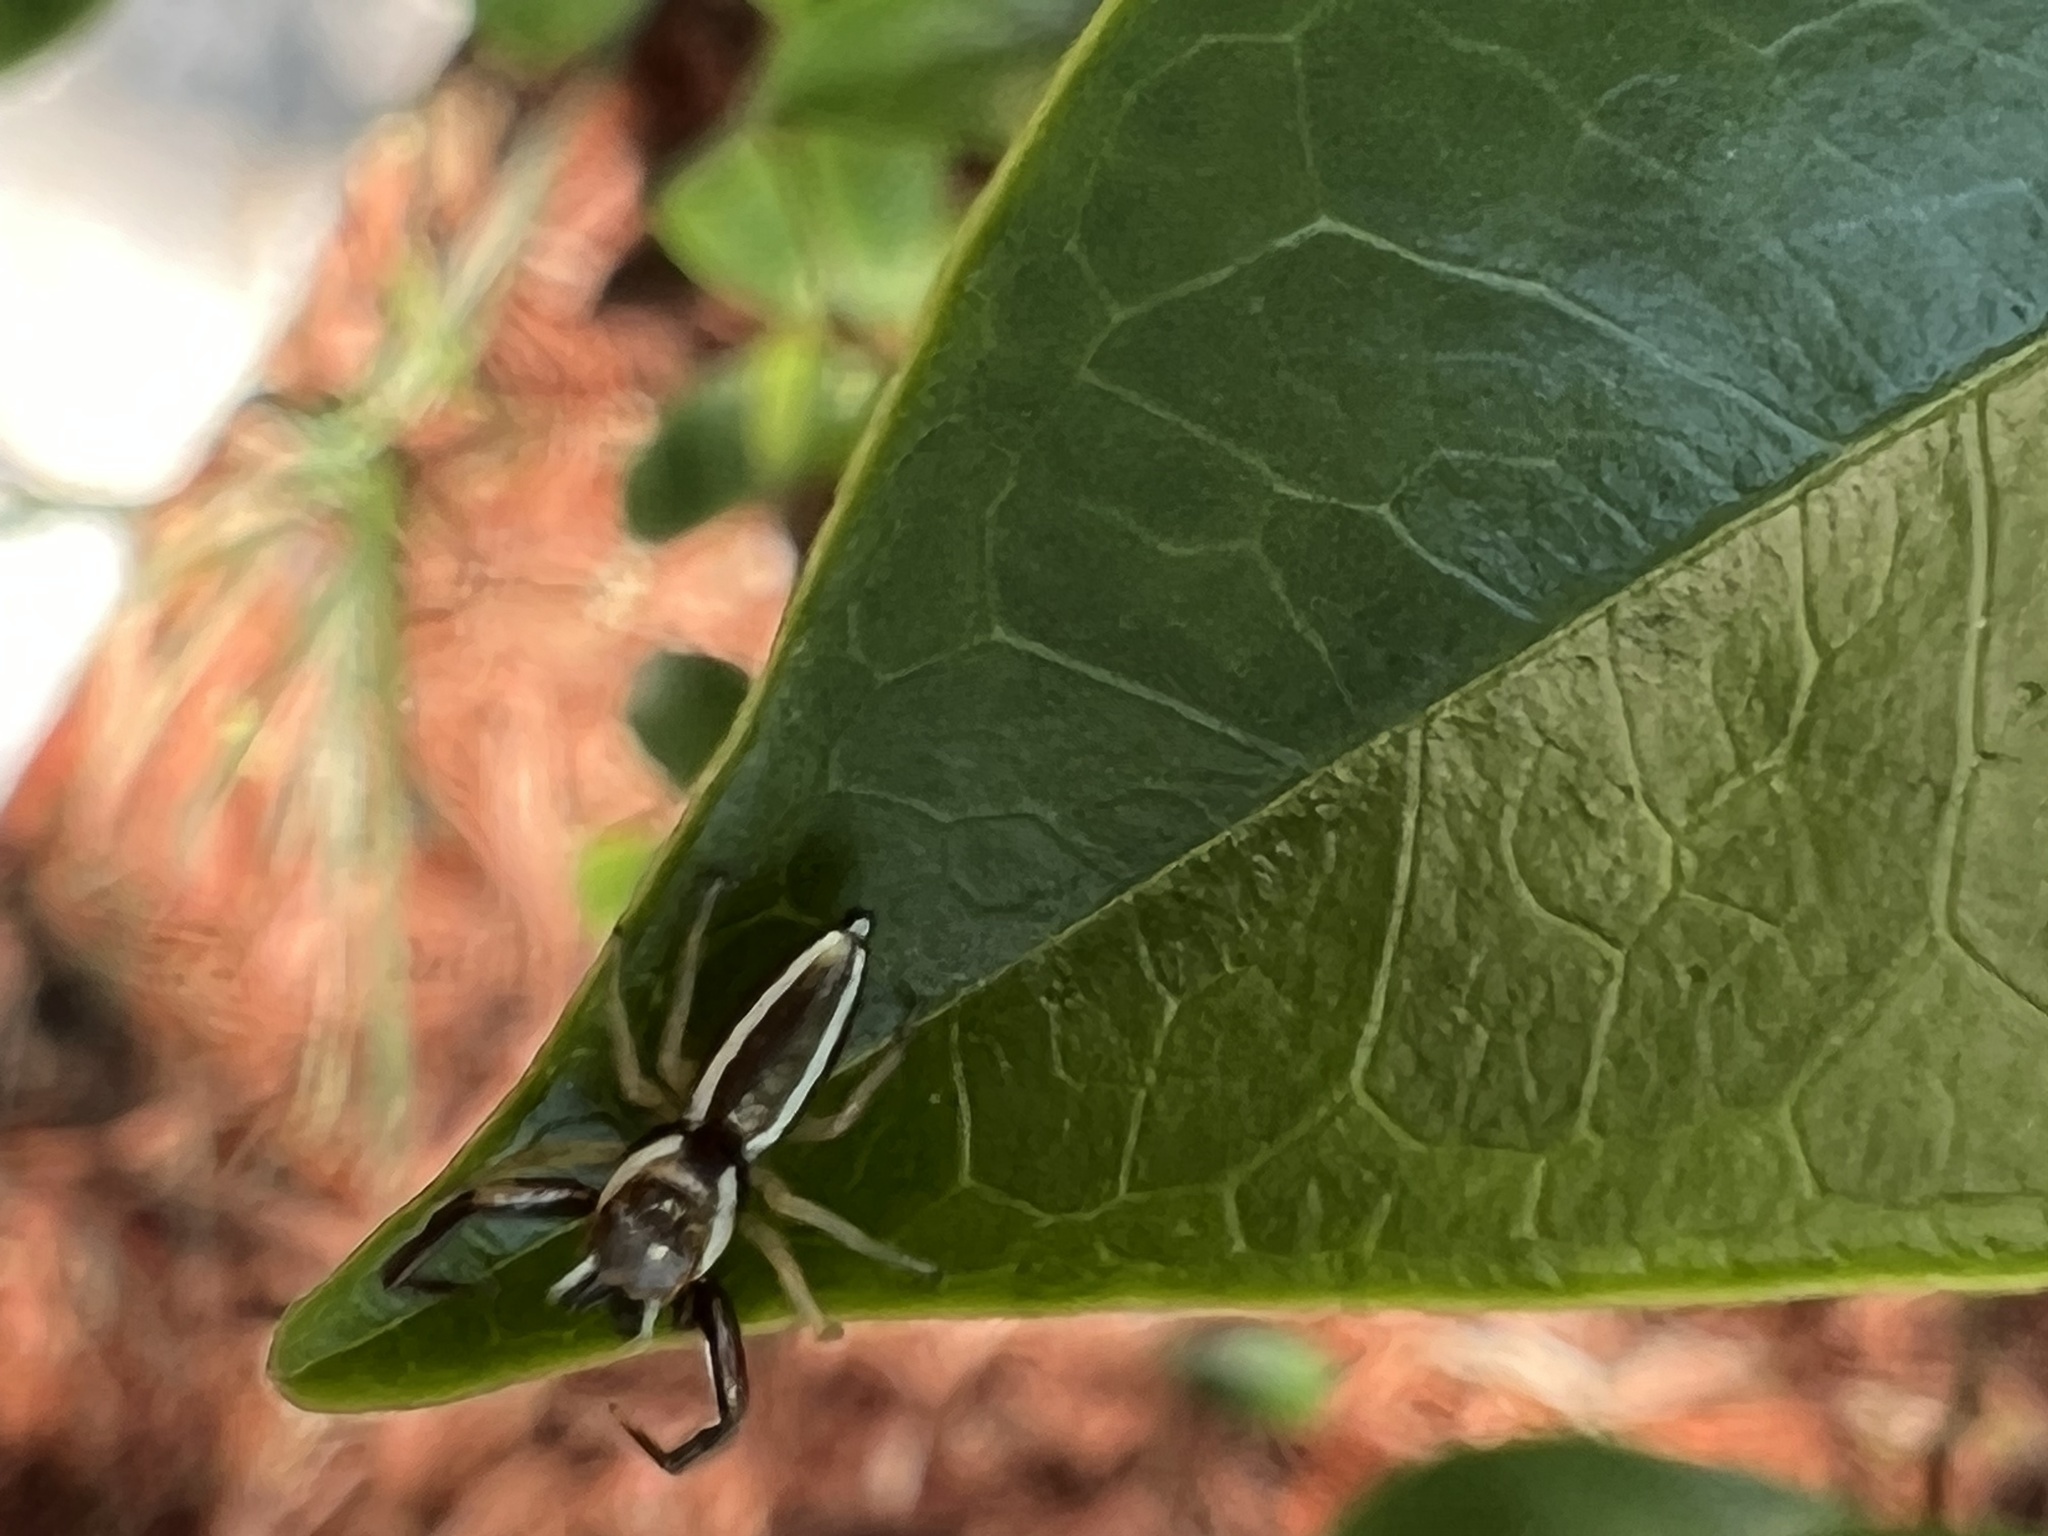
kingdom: Animalia
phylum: Arthropoda
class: Arachnida
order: Araneae
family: Salticidae
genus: Hentzia
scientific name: Hentzia palmarum
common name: Common hentz jumping spider
